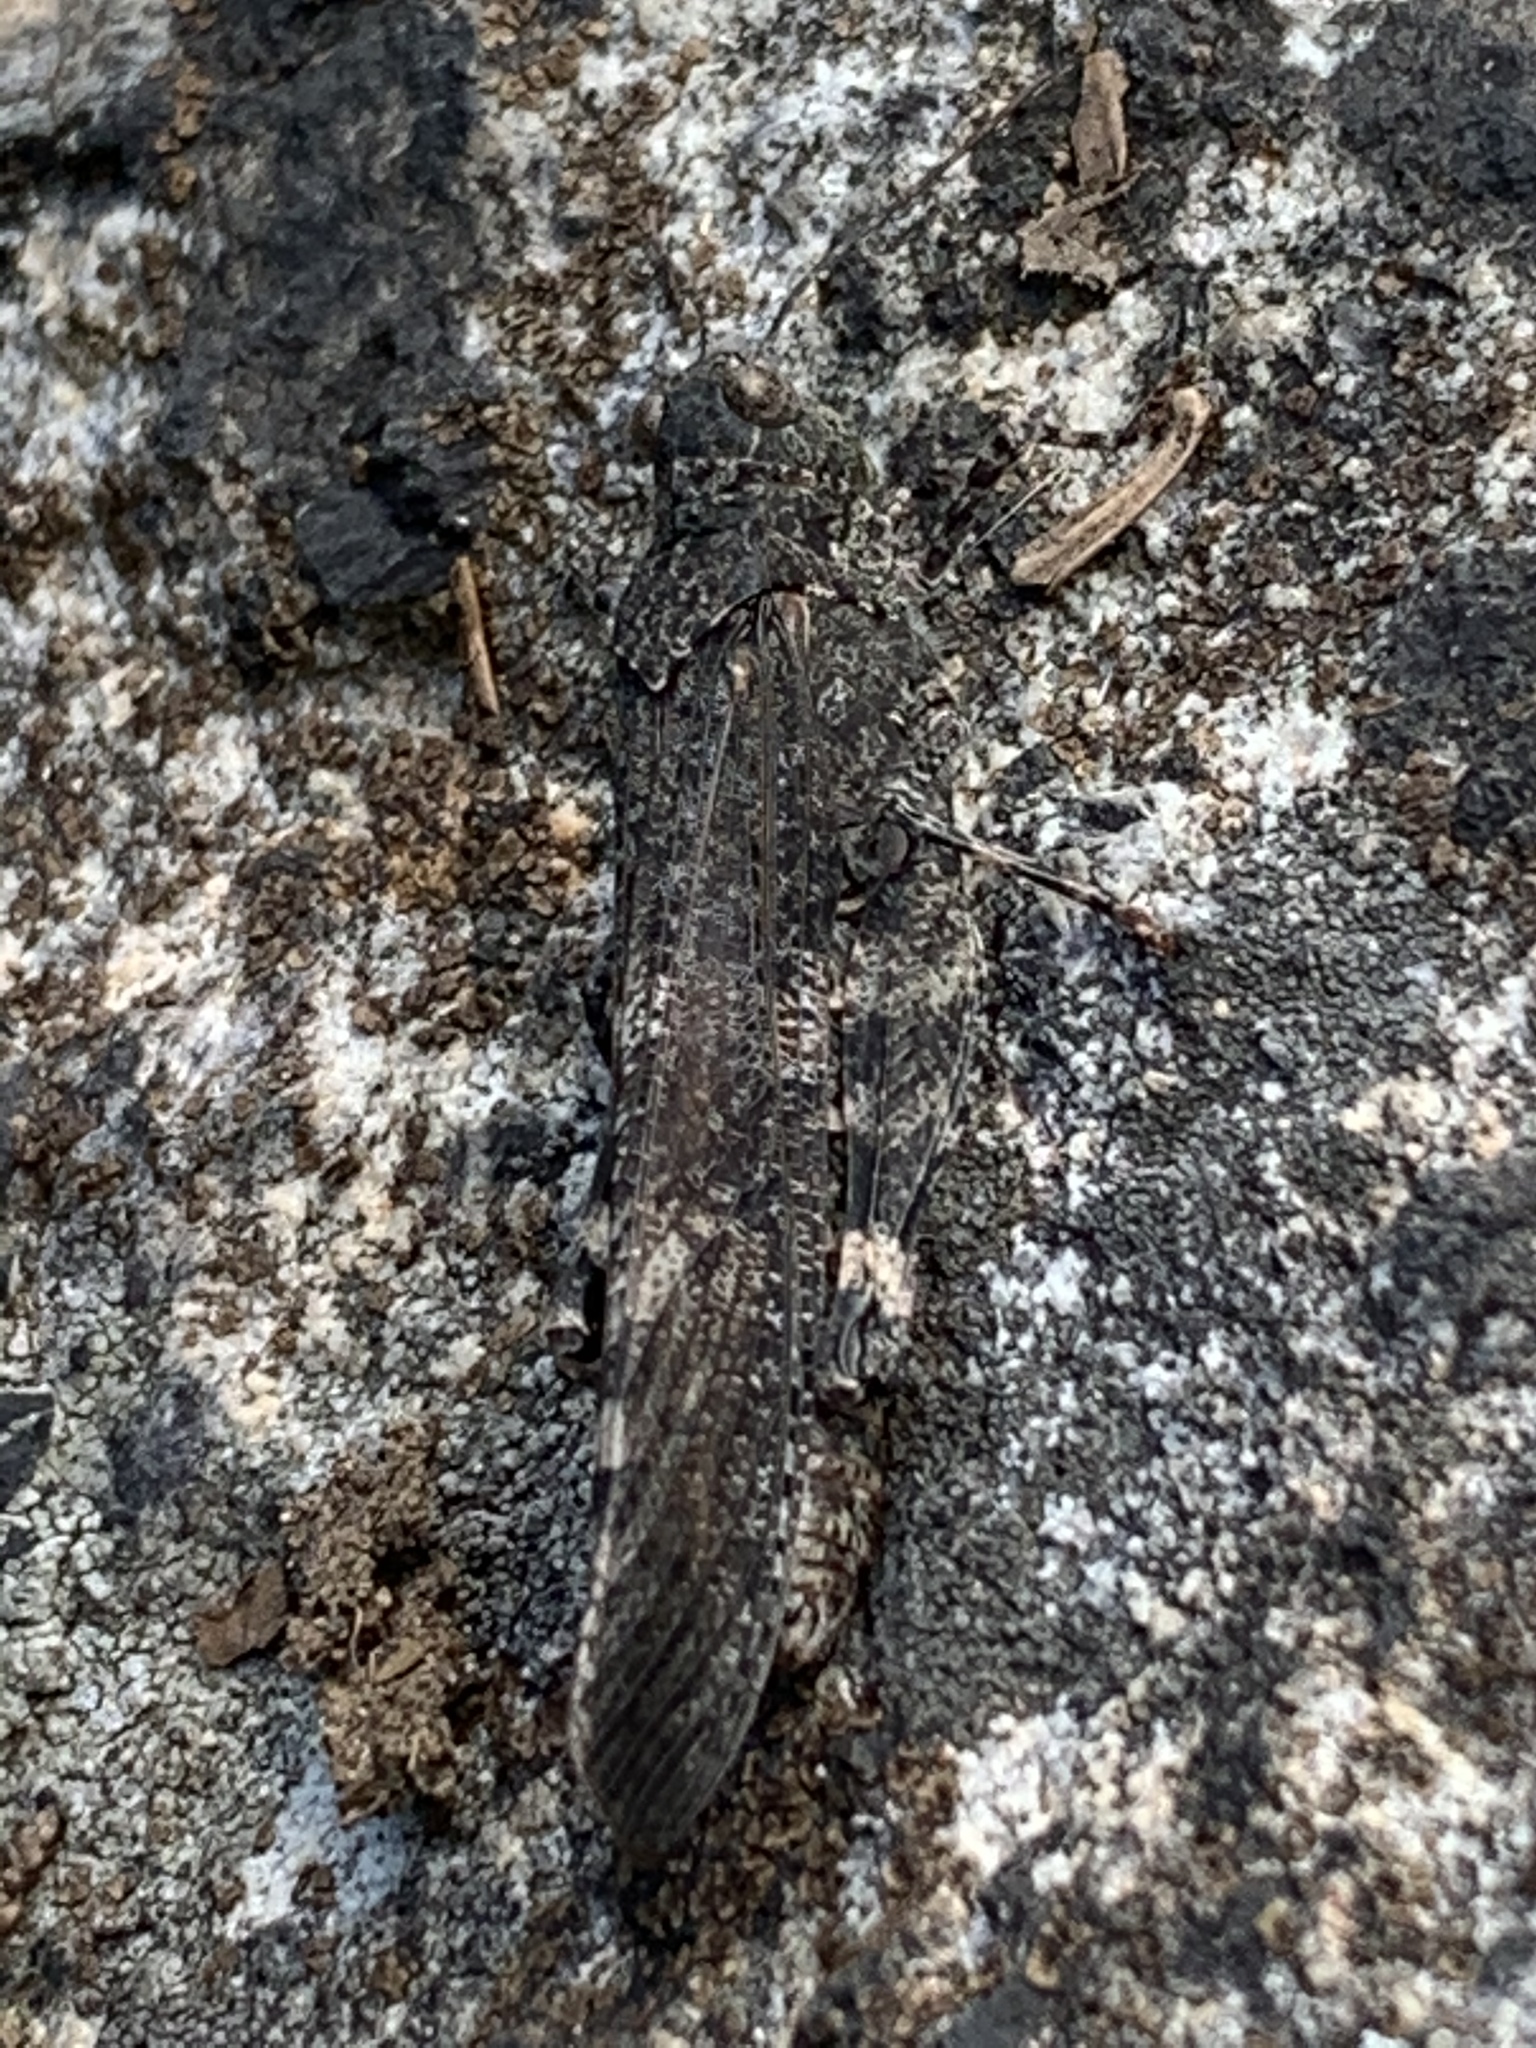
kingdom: Animalia
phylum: Arthropoda
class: Insecta
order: Orthoptera
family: Acrididae
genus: Trimerotropis
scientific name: Trimerotropis verruculata
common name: Crackling forest grasshopper
